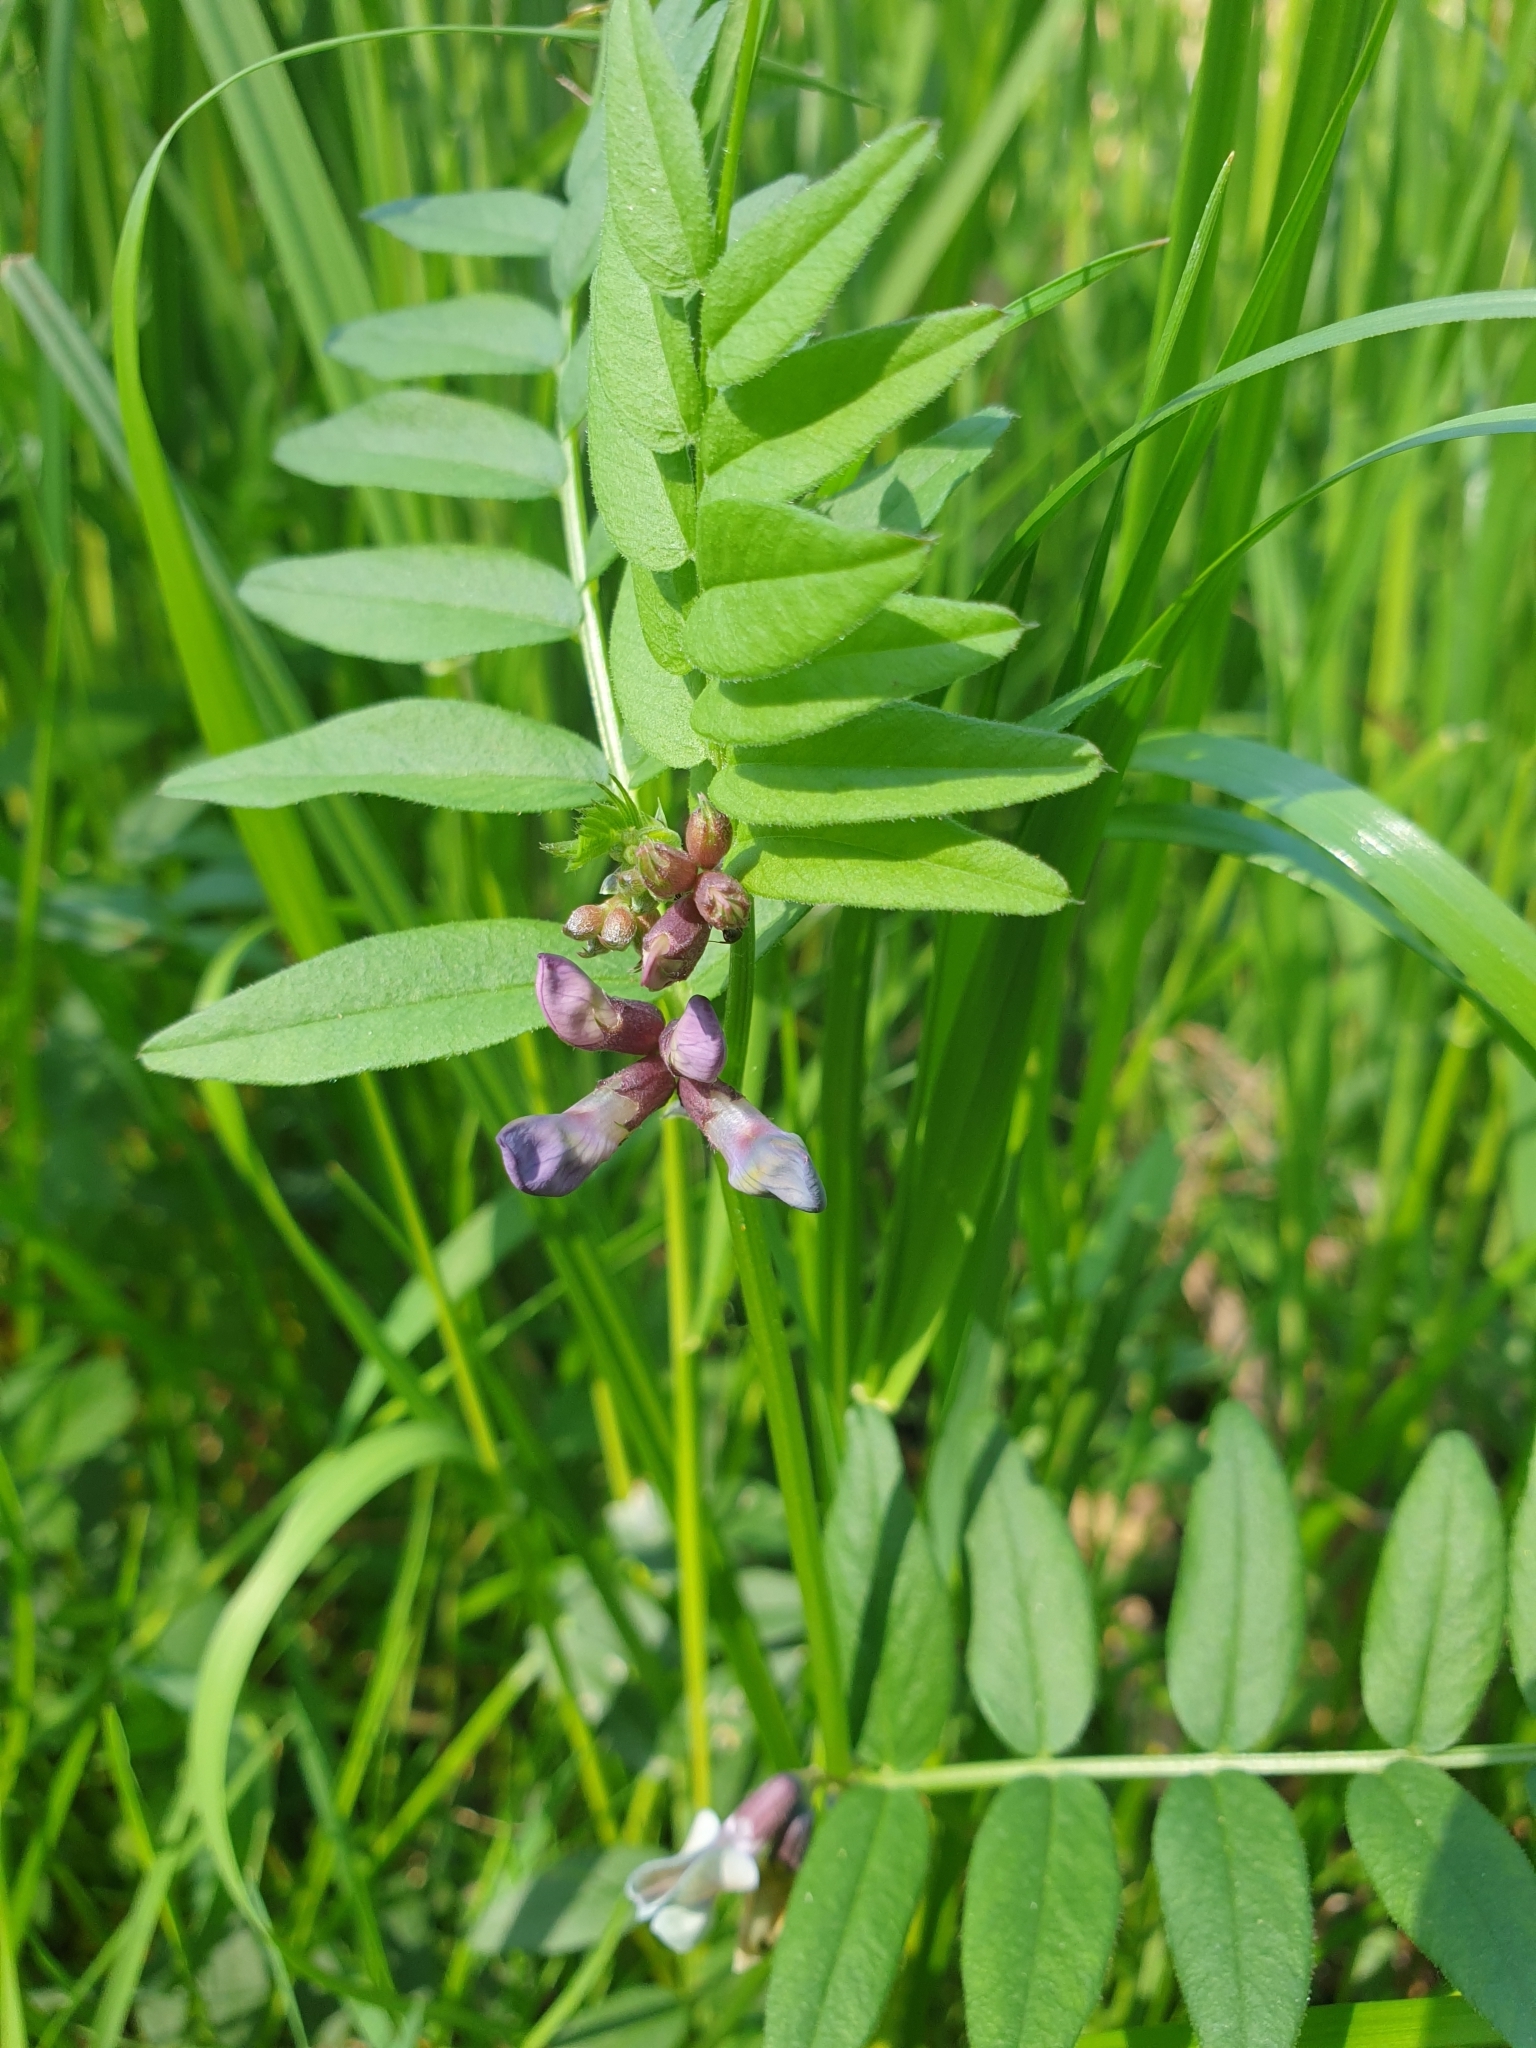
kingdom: Plantae
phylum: Tracheophyta
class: Magnoliopsida
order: Fabales
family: Fabaceae
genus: Vicia
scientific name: Vicia sepium
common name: Bush vetch
